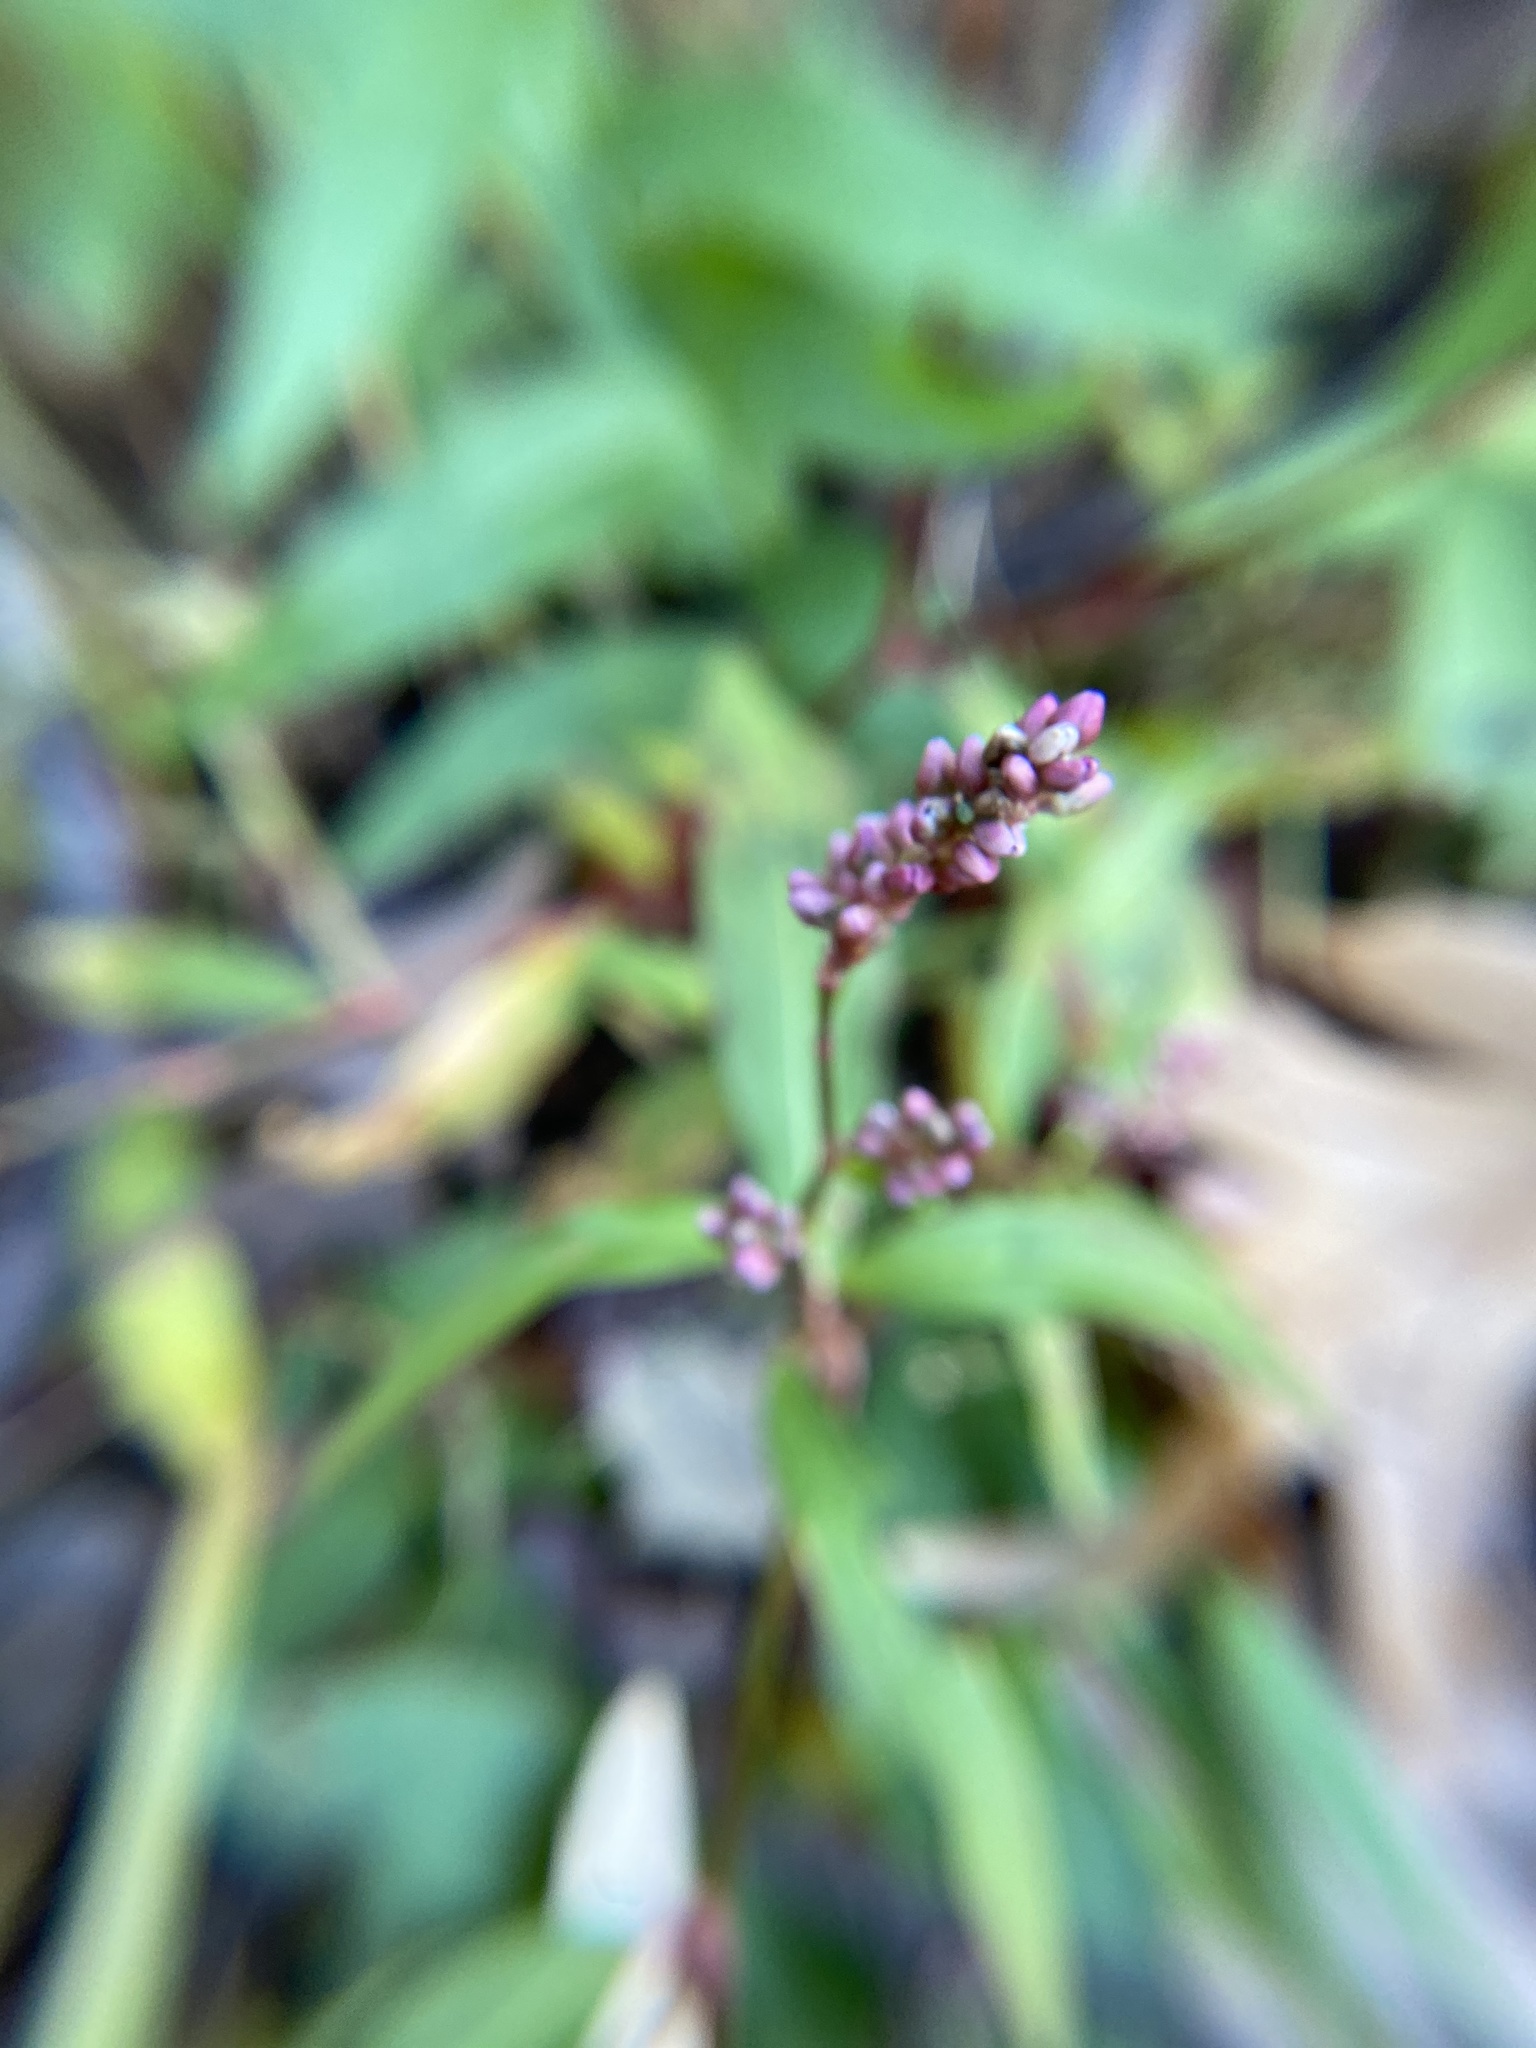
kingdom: Plantae
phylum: Tracheophyta
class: Magnoliopsida
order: Caryophyllales
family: Polygonaceae
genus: Persicaria
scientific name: Persicaria longiseta
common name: Bristly lady's-thumb
